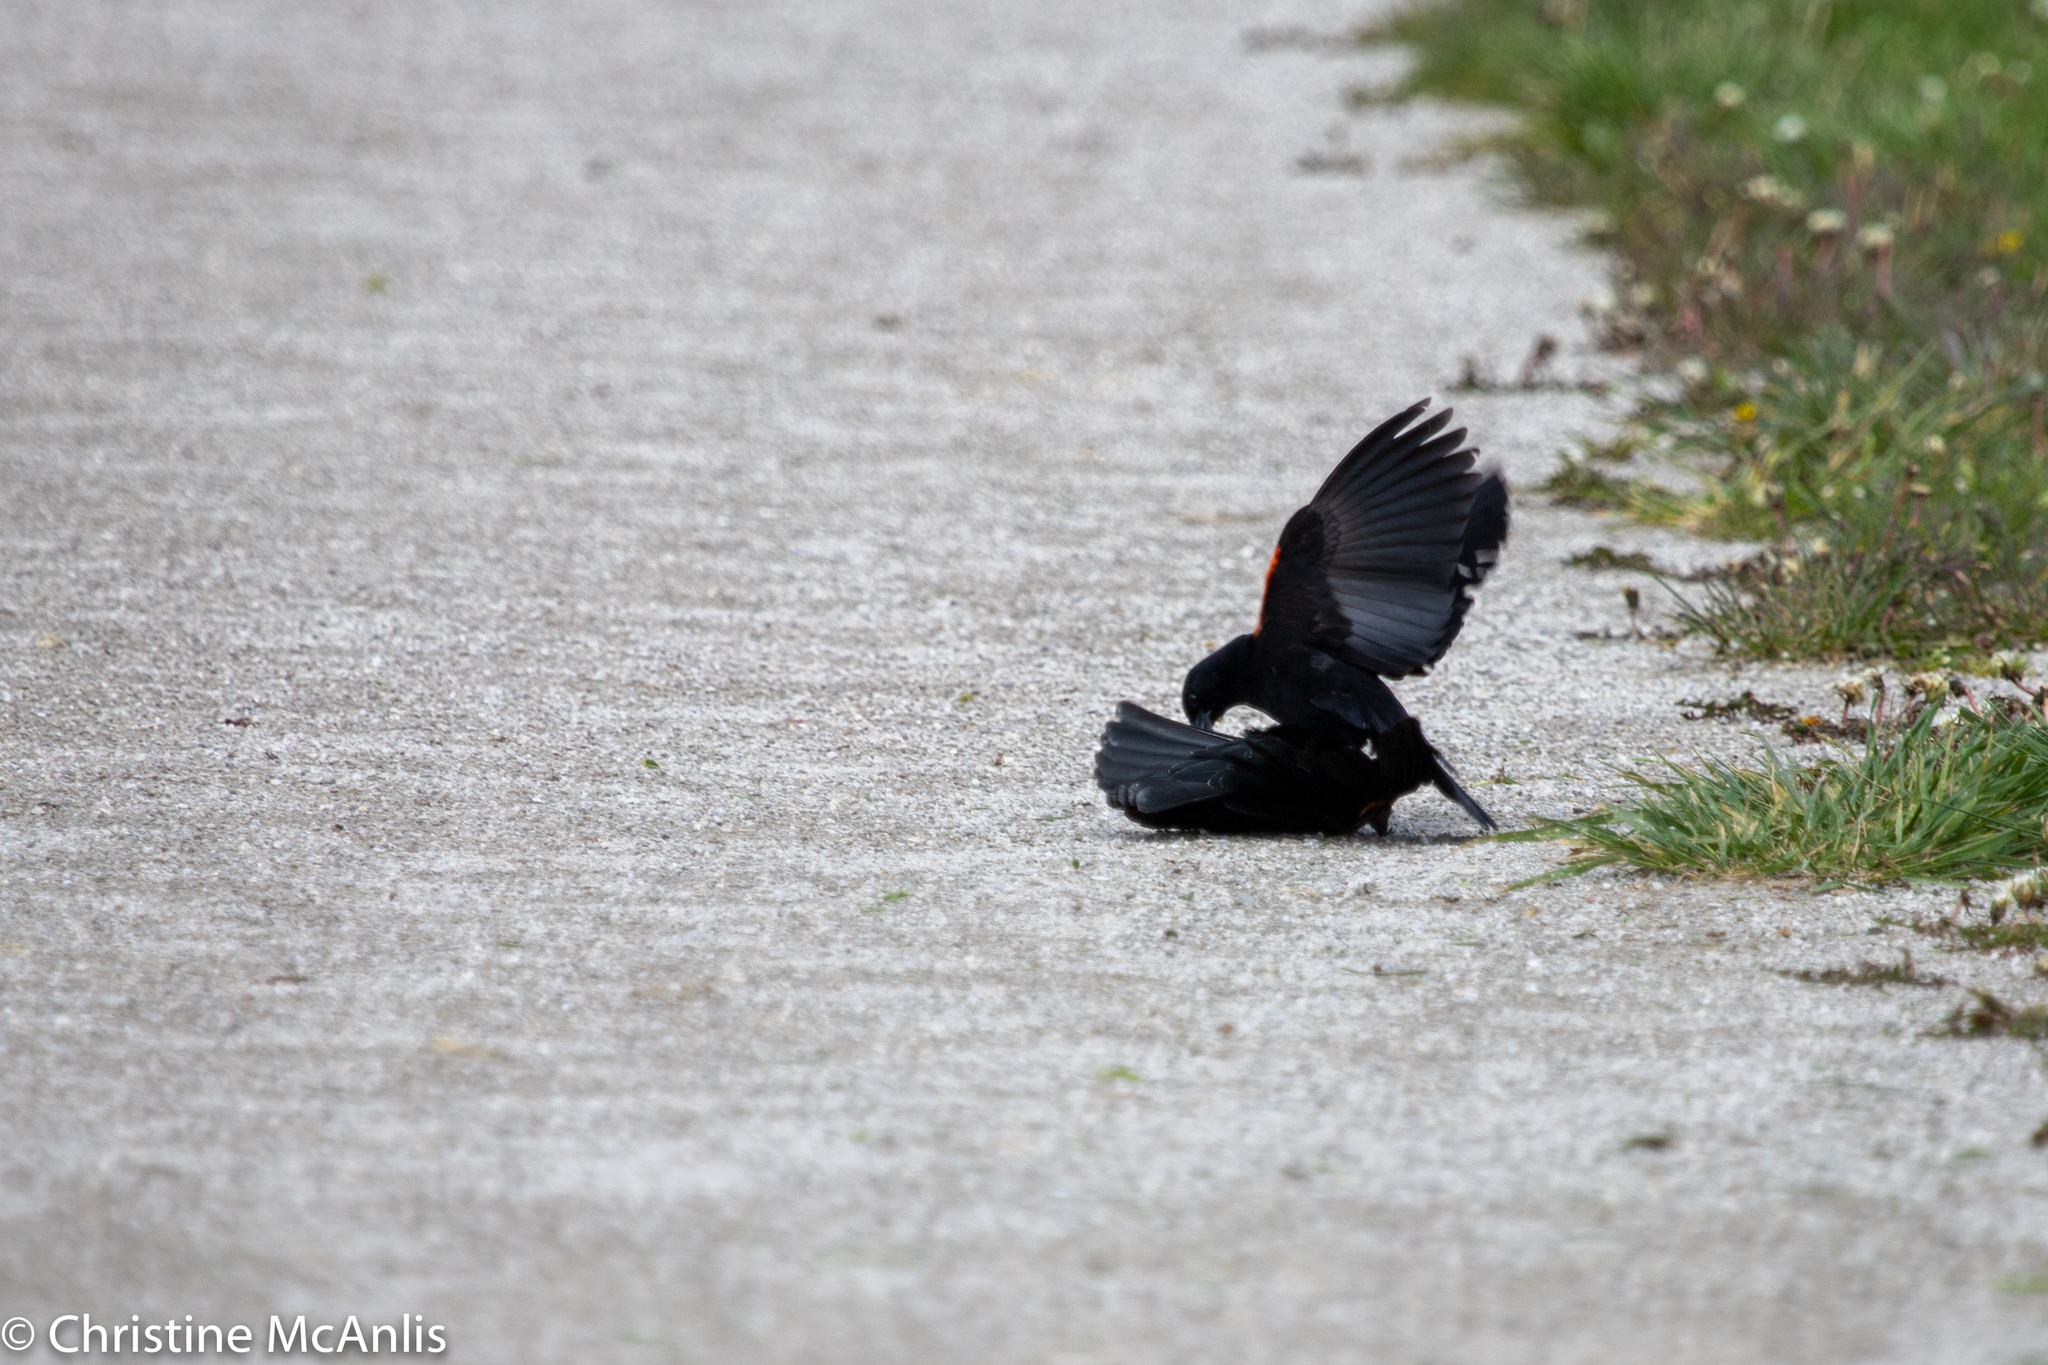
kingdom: Animalia
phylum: Chordata
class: Aves
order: Passeriformes
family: Icteridae
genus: Agelaius
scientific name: Agelaius phoeniceus
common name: Red-winged blackbird
